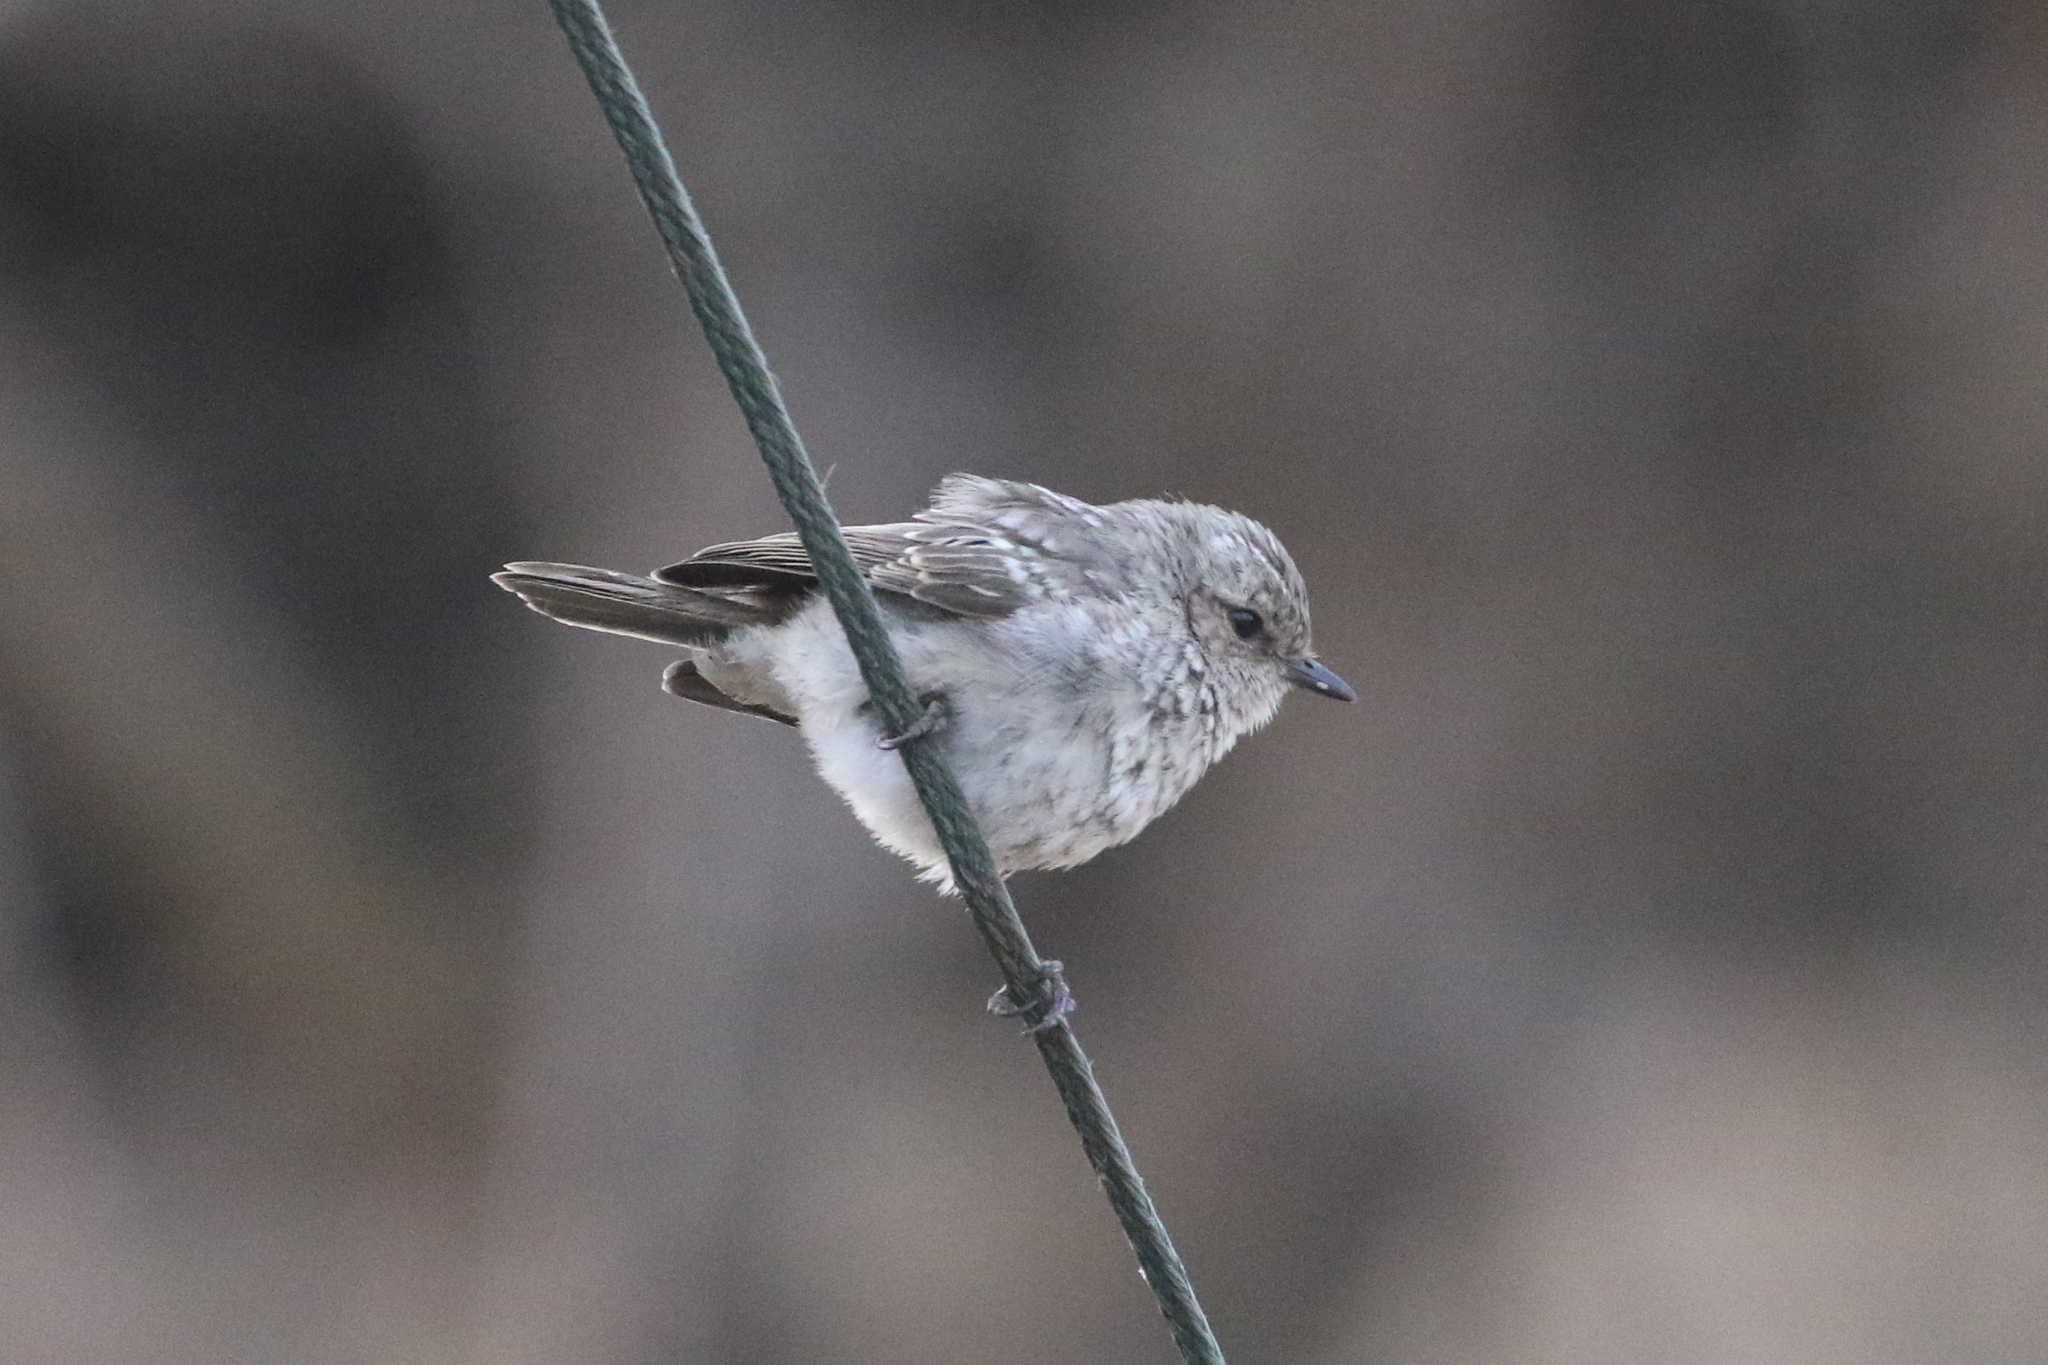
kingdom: Animalia
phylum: Chordata
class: Aves
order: Passeriformes
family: Muscicapidae
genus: Bradornis
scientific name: Bradornis microrhynchus
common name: African grey flycatcher
